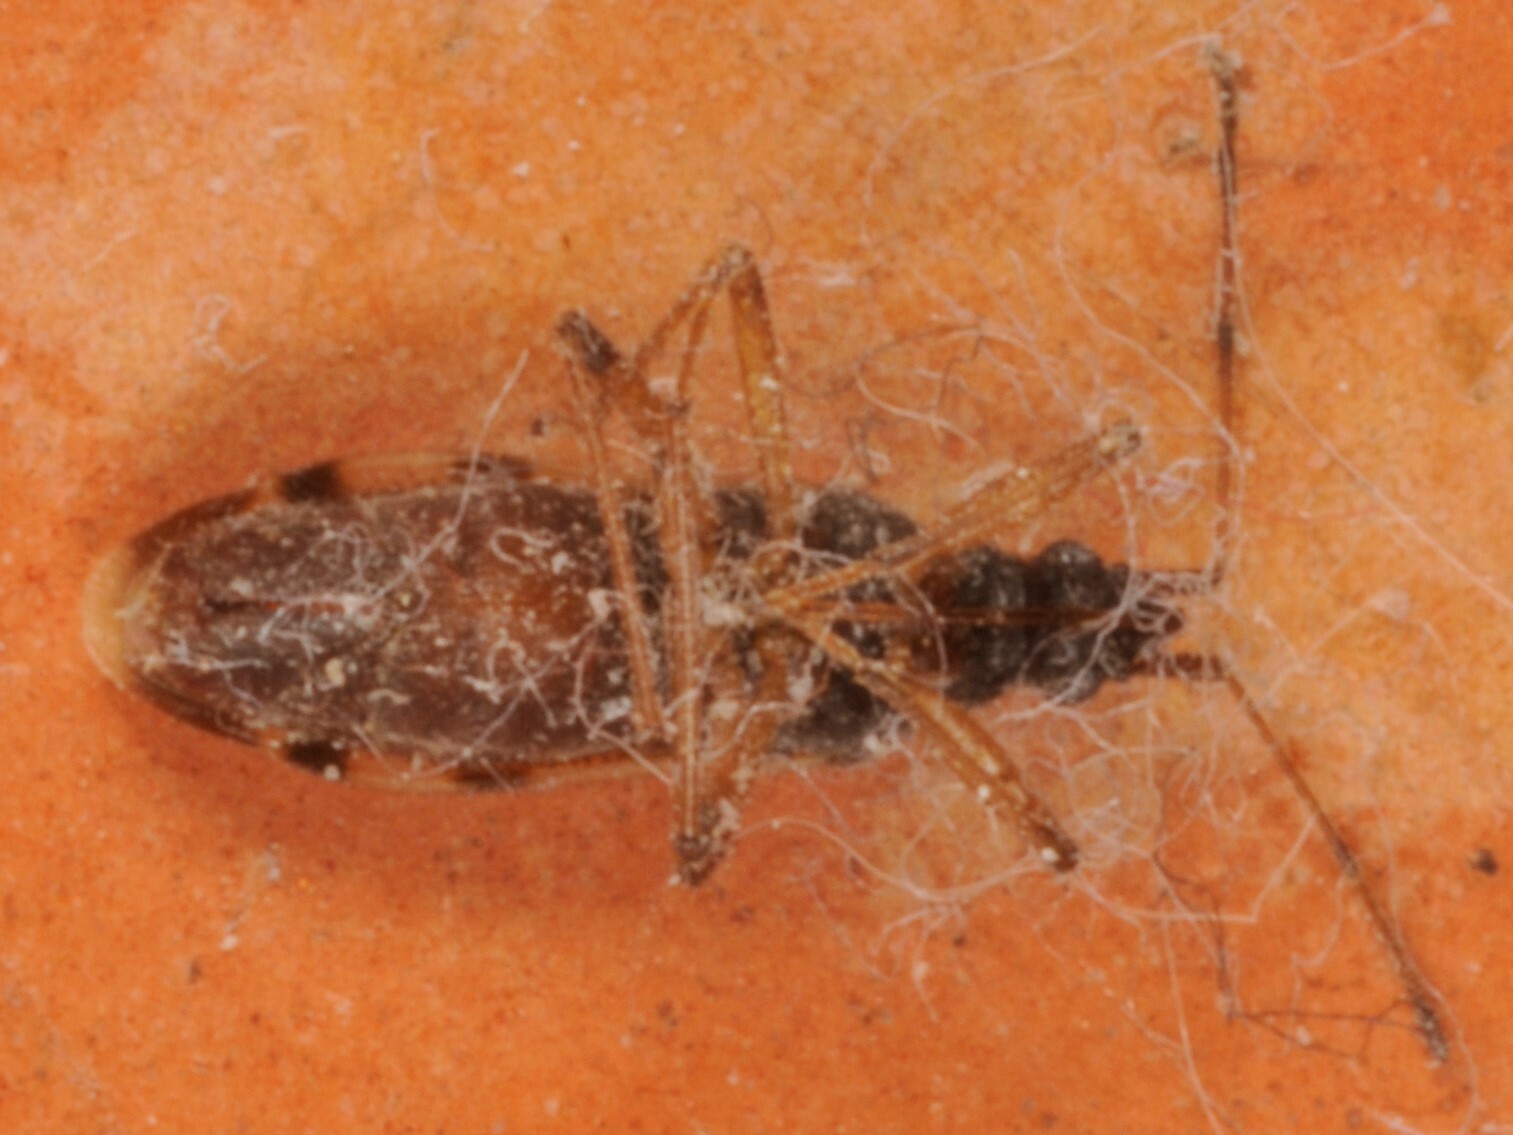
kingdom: Animalia
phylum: Arthropoda
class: Insecta
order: Hemiptera
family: Rhyparochromidae
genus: Ozophora
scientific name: Ozophora salsaverdeae
